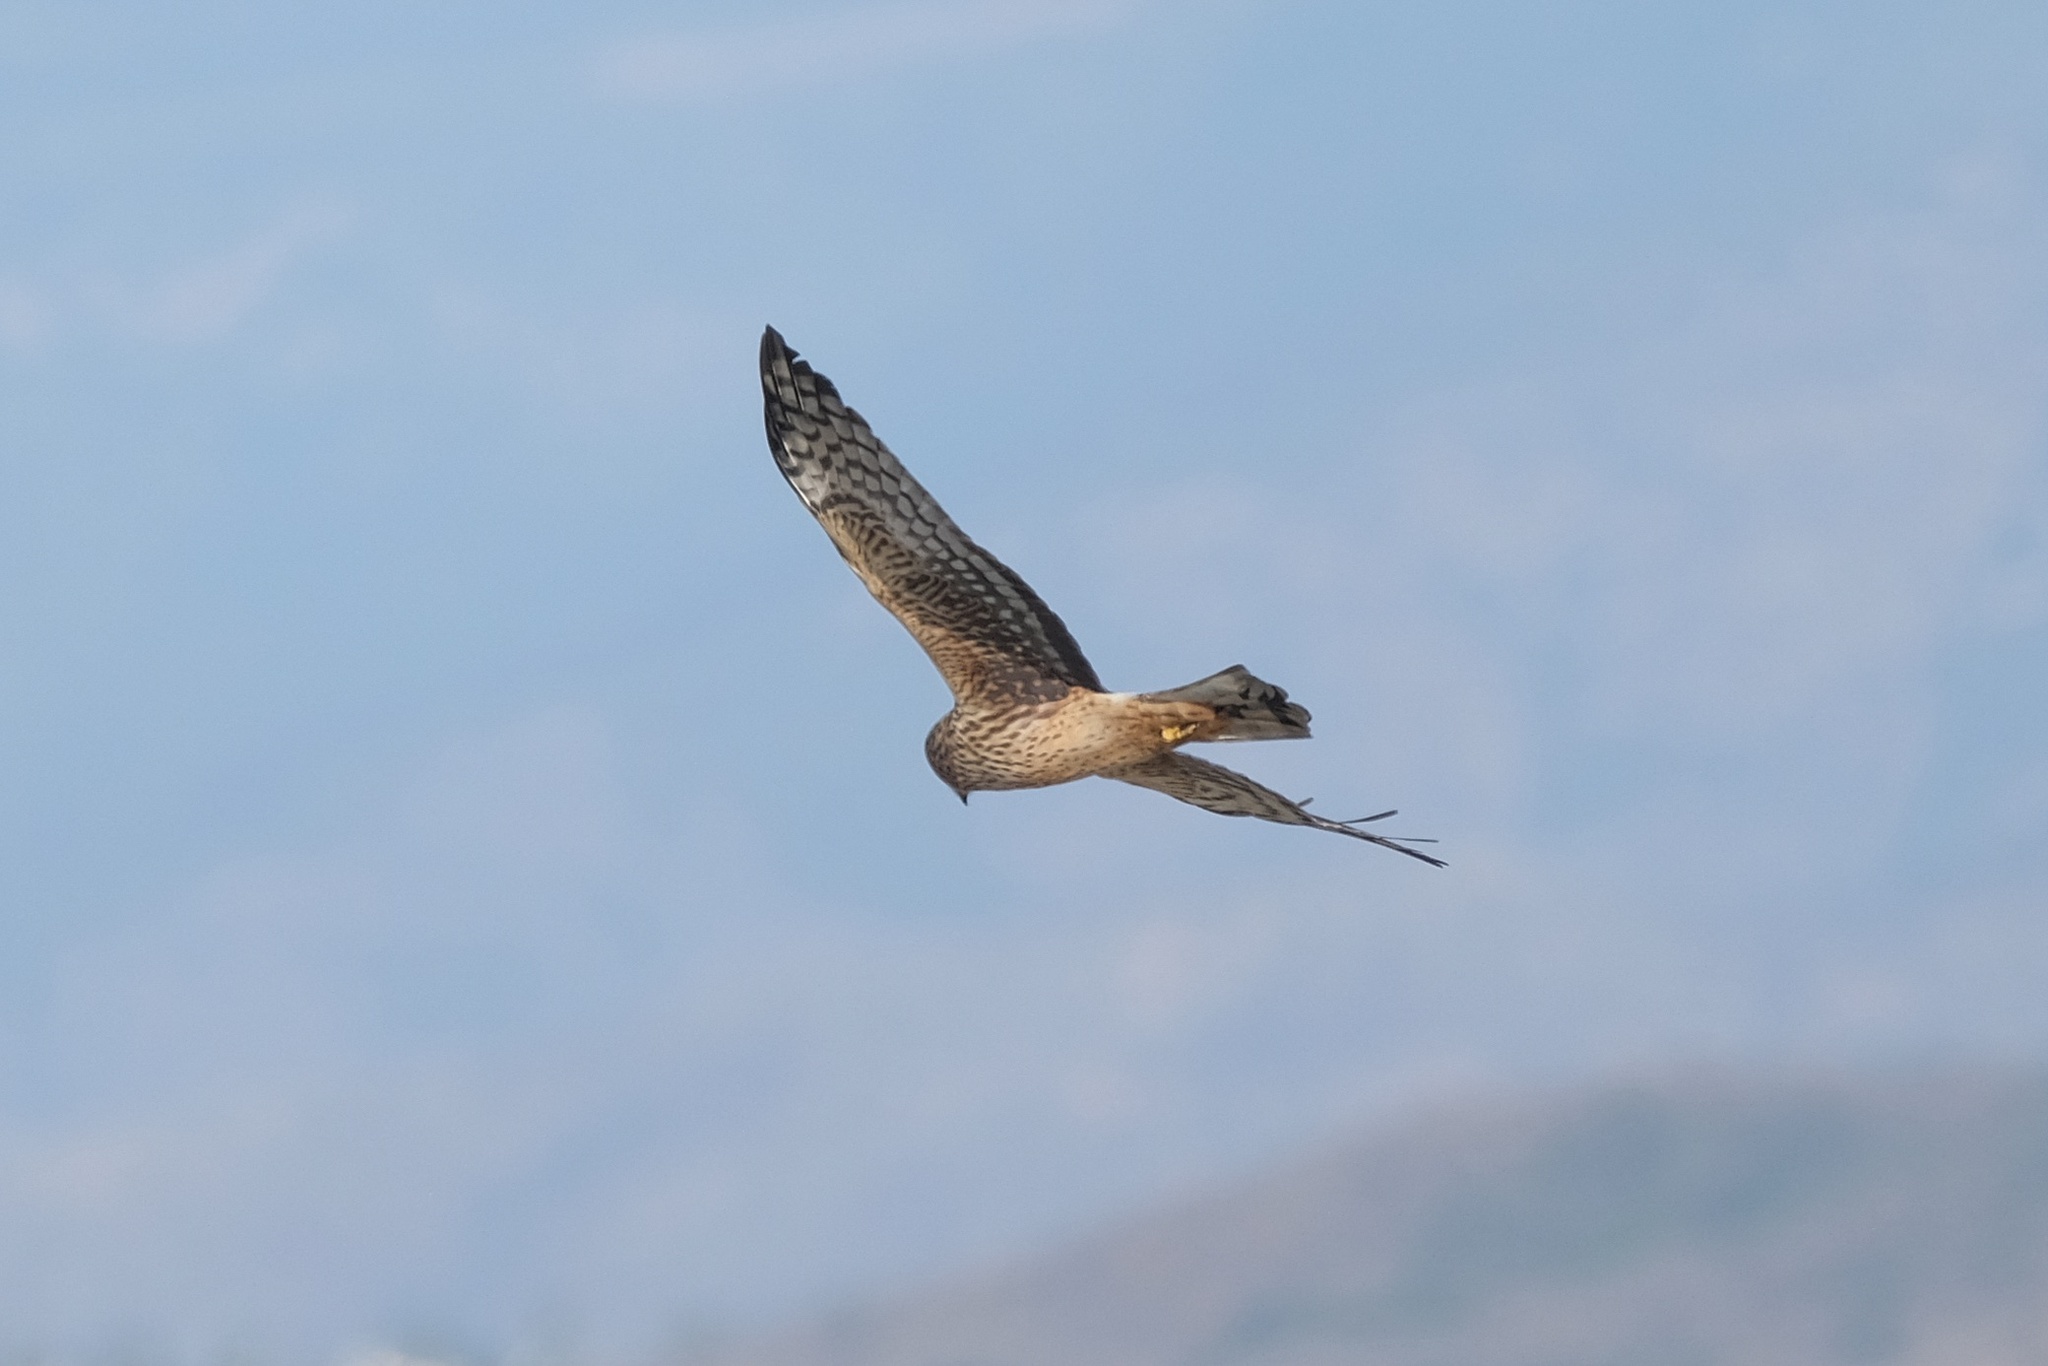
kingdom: Animalia
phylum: Chordata
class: Aves
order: Accipitriformes
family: Accipitridae
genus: Circus
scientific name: Circus cyaneus
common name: Hen harrier
